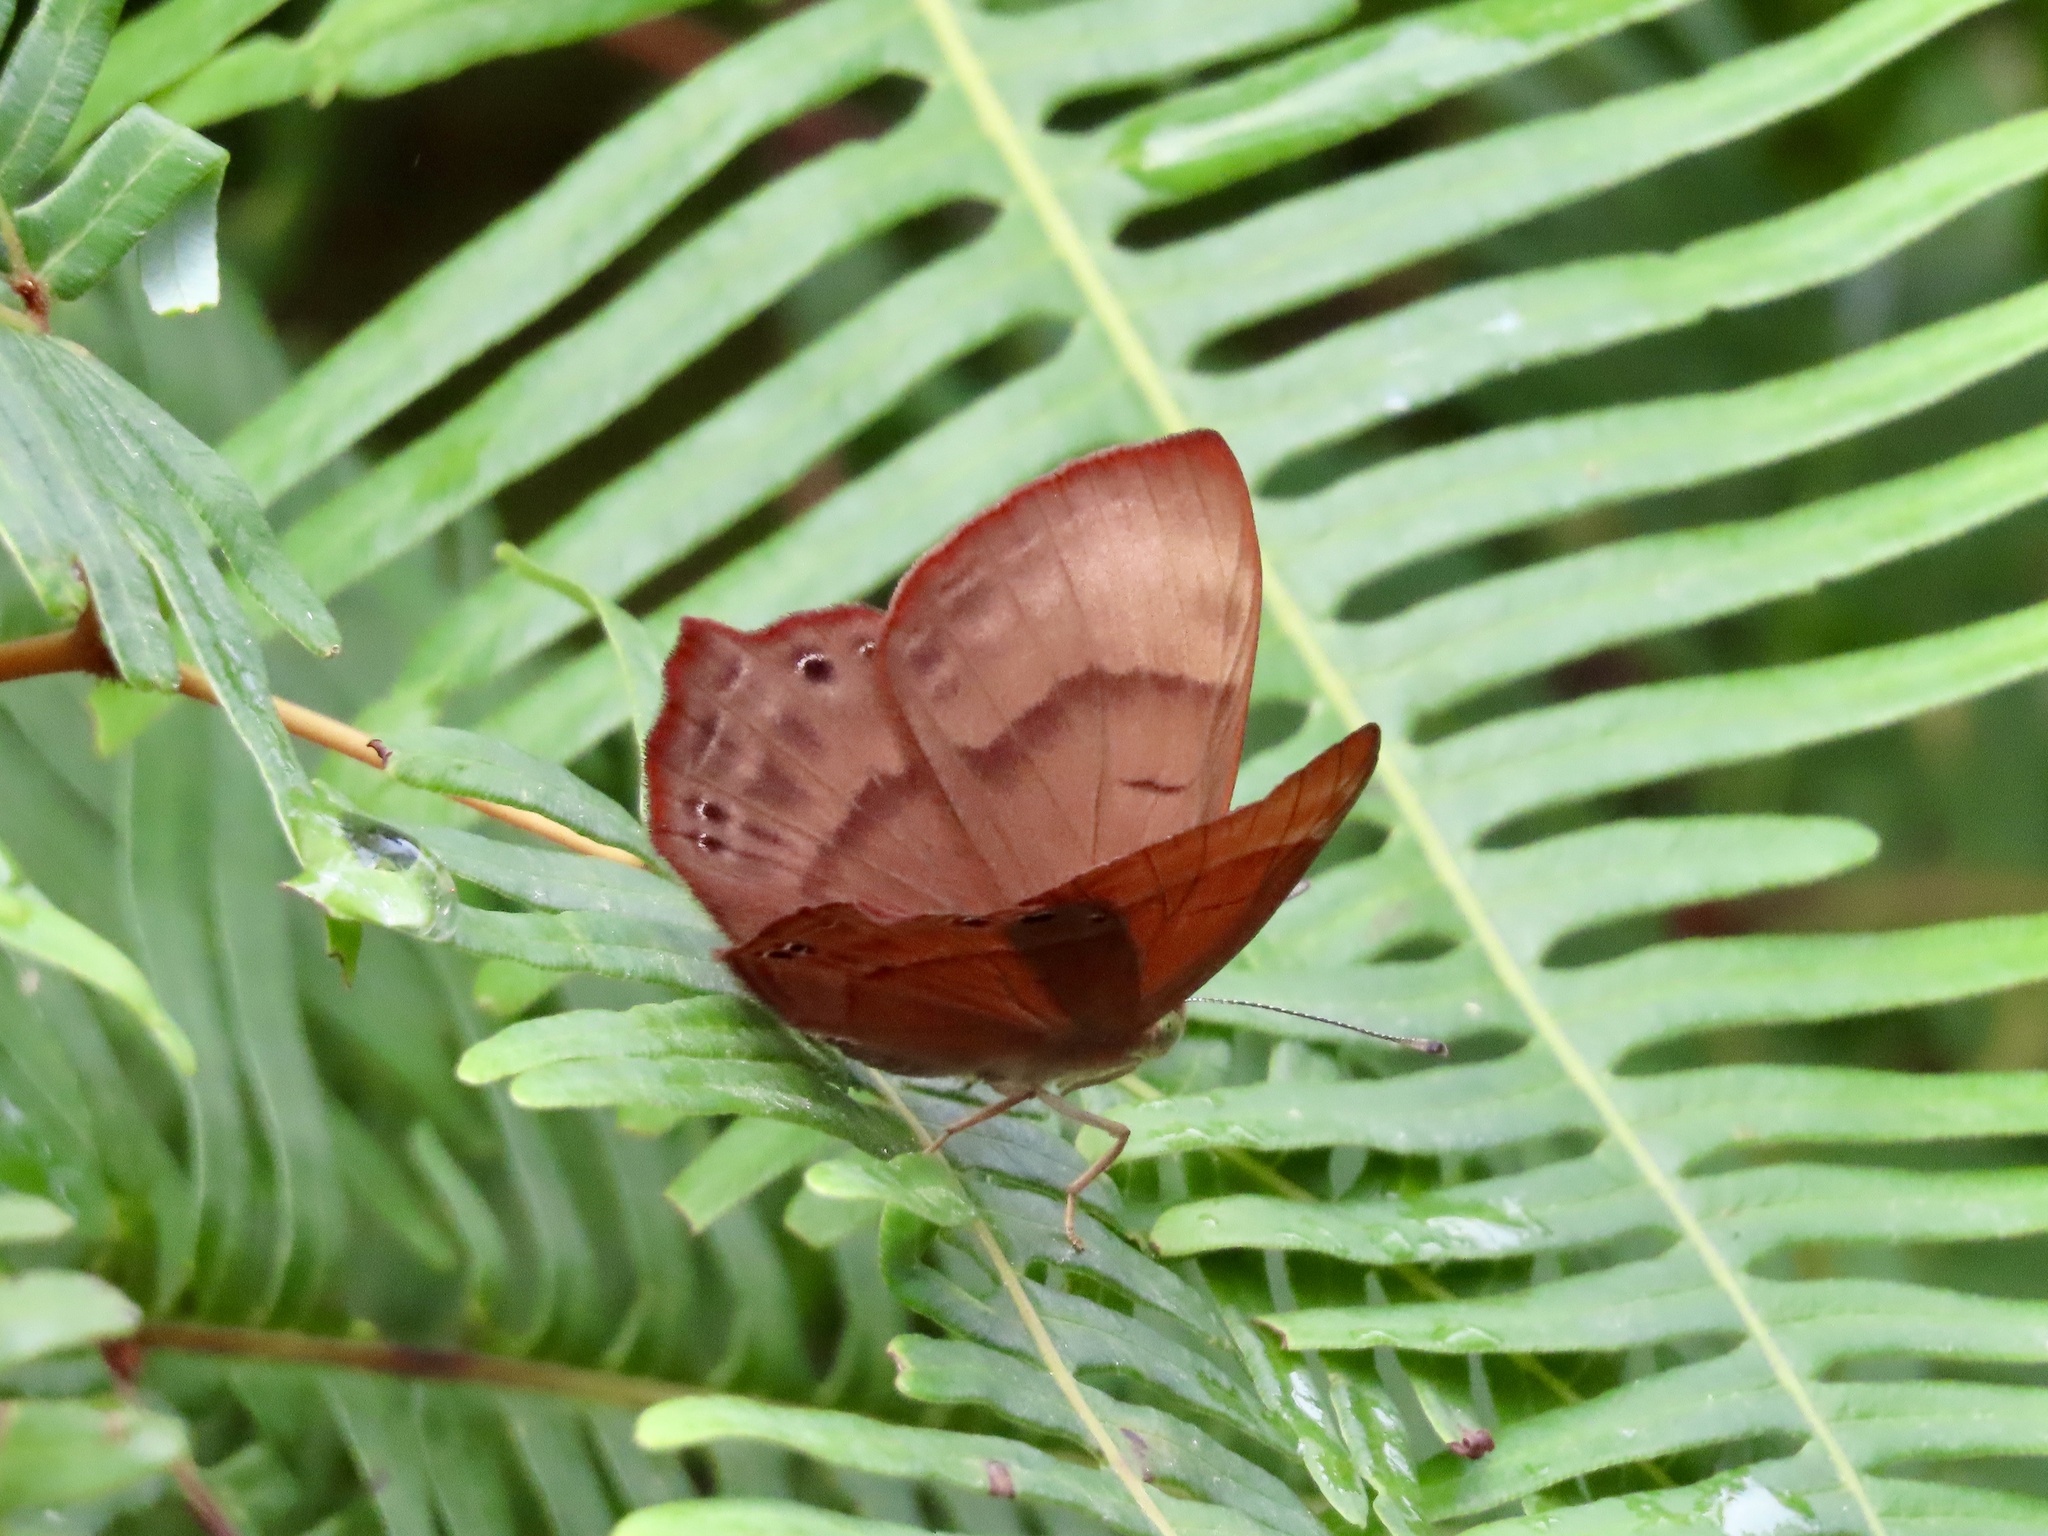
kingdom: Animalia
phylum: Arthropoda
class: Insecta
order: Lepidoptera
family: Lycaenidae
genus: Abisara
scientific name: Abisara echeria
